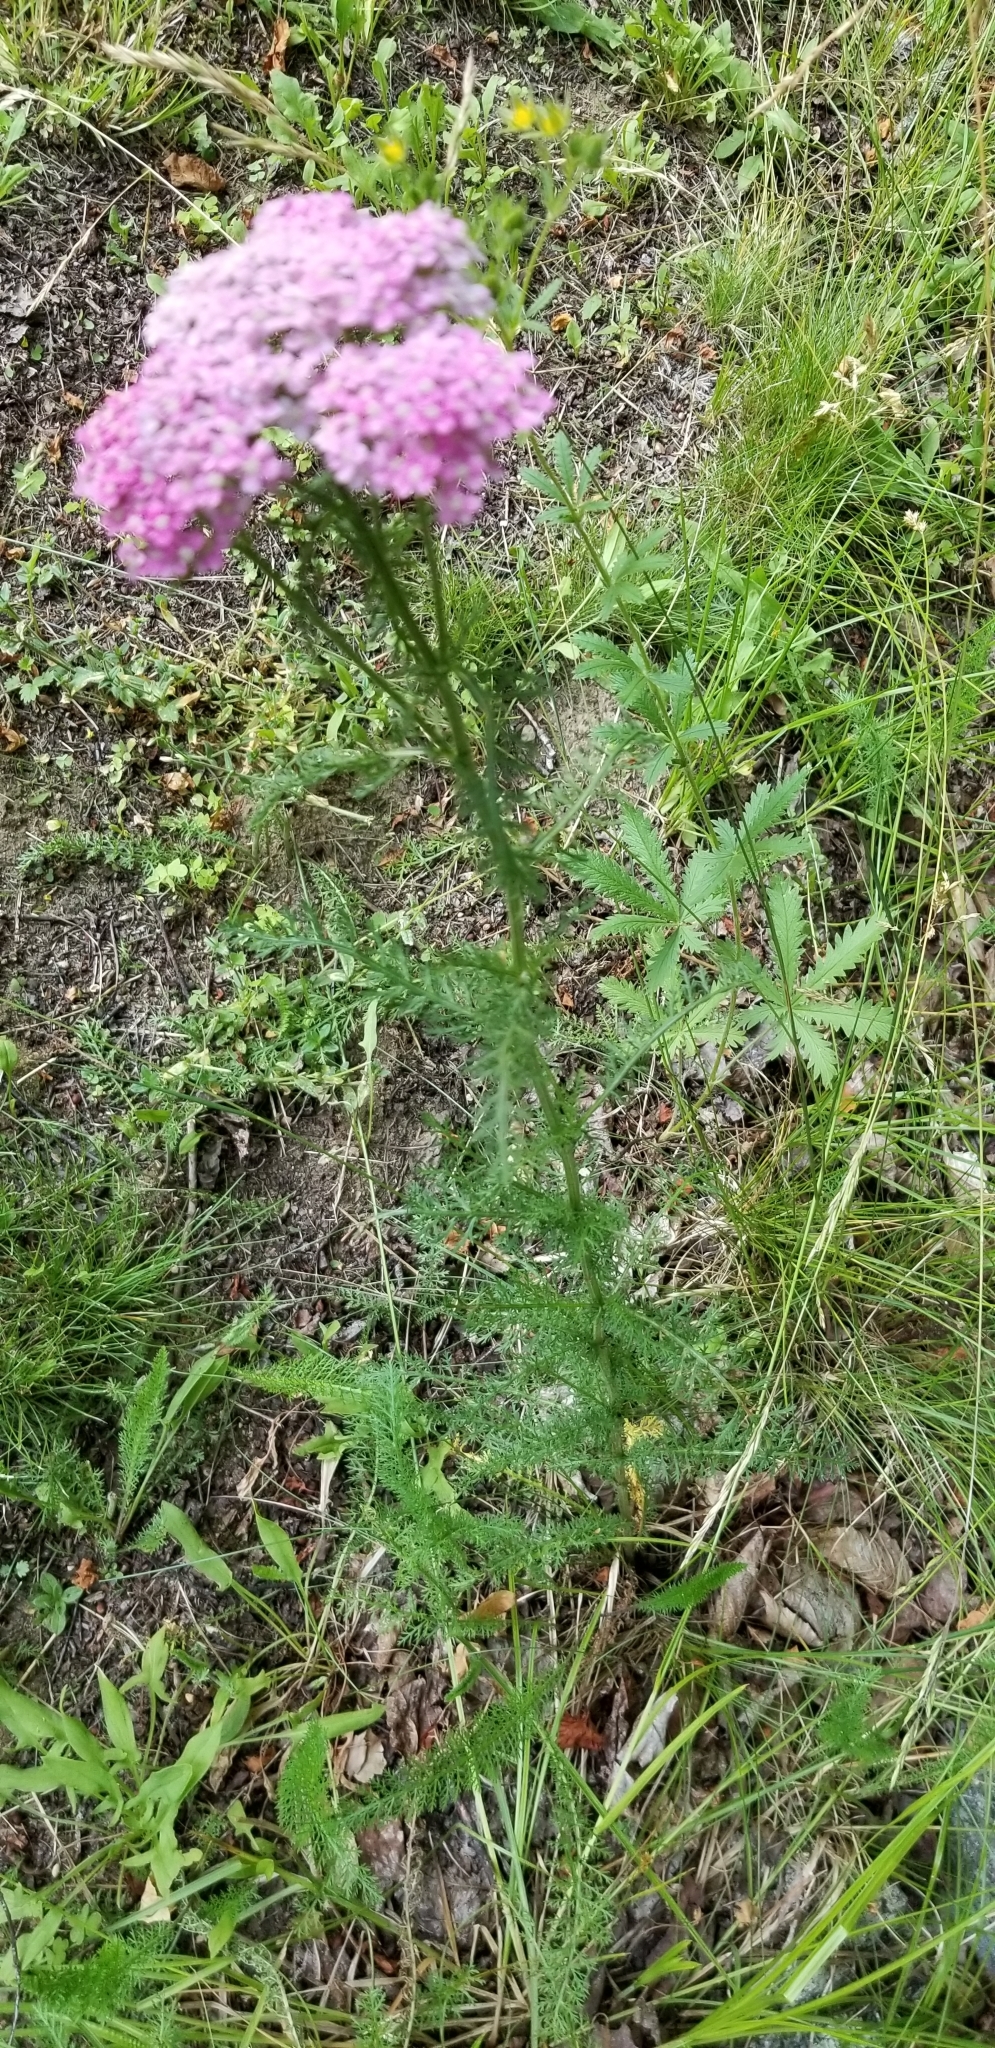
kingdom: Plantae
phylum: Tracheophyta
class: Magnoliopsida
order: Asterales
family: Asteraceae
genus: Achillea
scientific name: Achillea millefolium
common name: Yarrow
